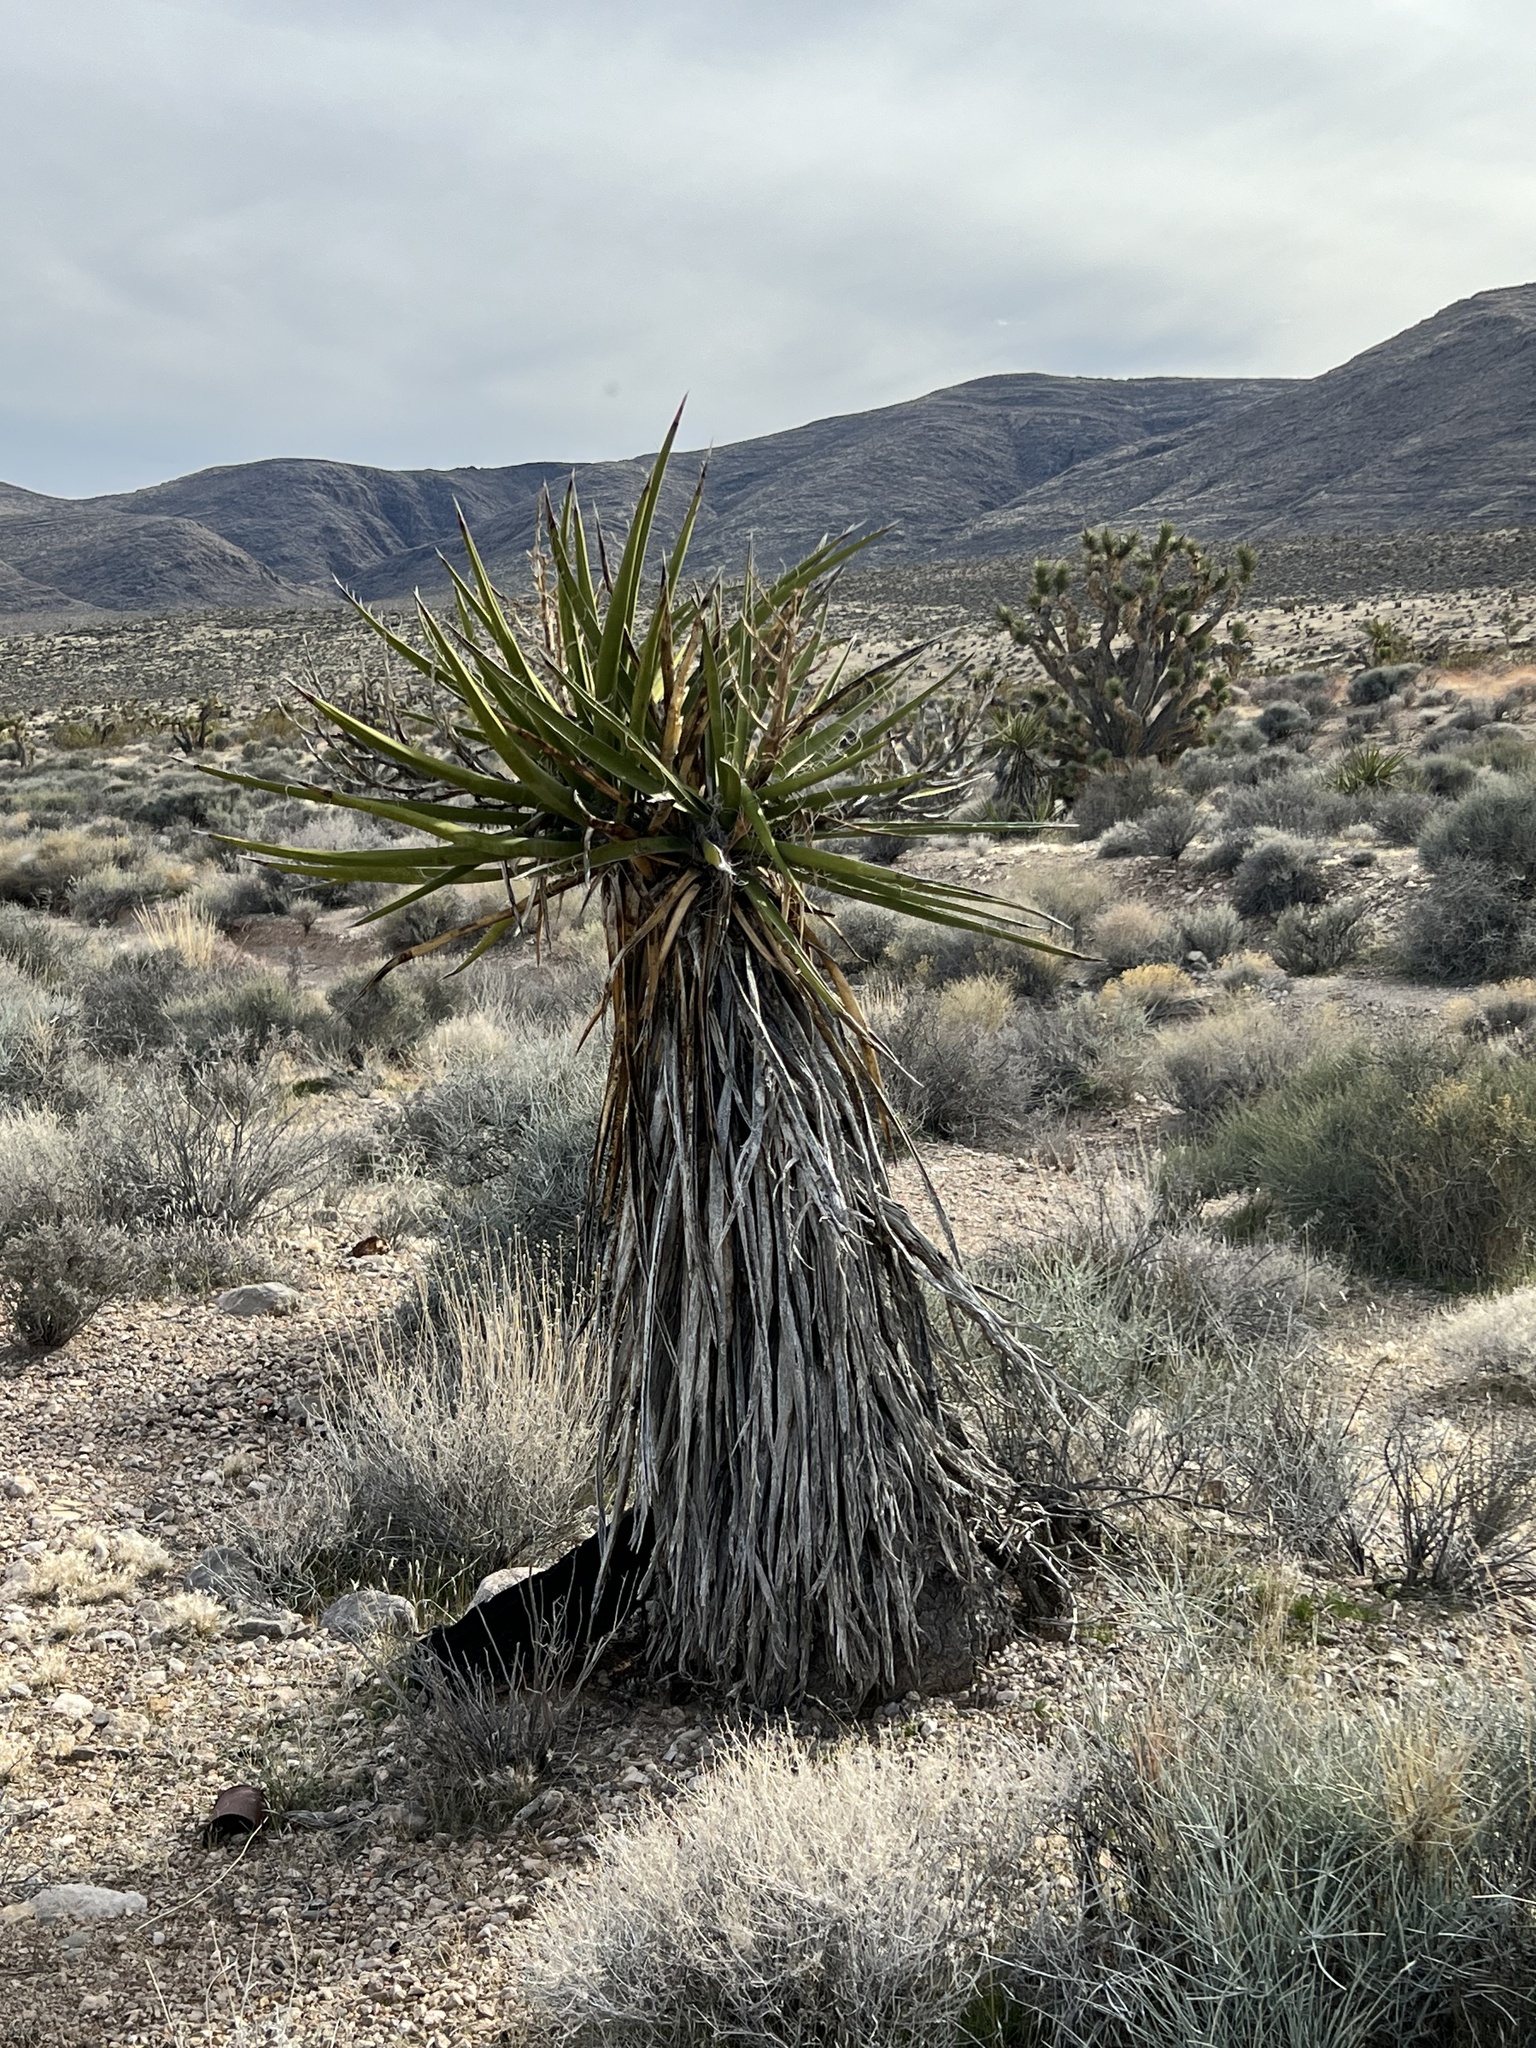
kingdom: Plantae
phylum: Tracheophyta
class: Liliopsida
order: Asparagales
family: Asparagaceae
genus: Yucca
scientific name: Yucca schidigera
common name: Mojave yucca
